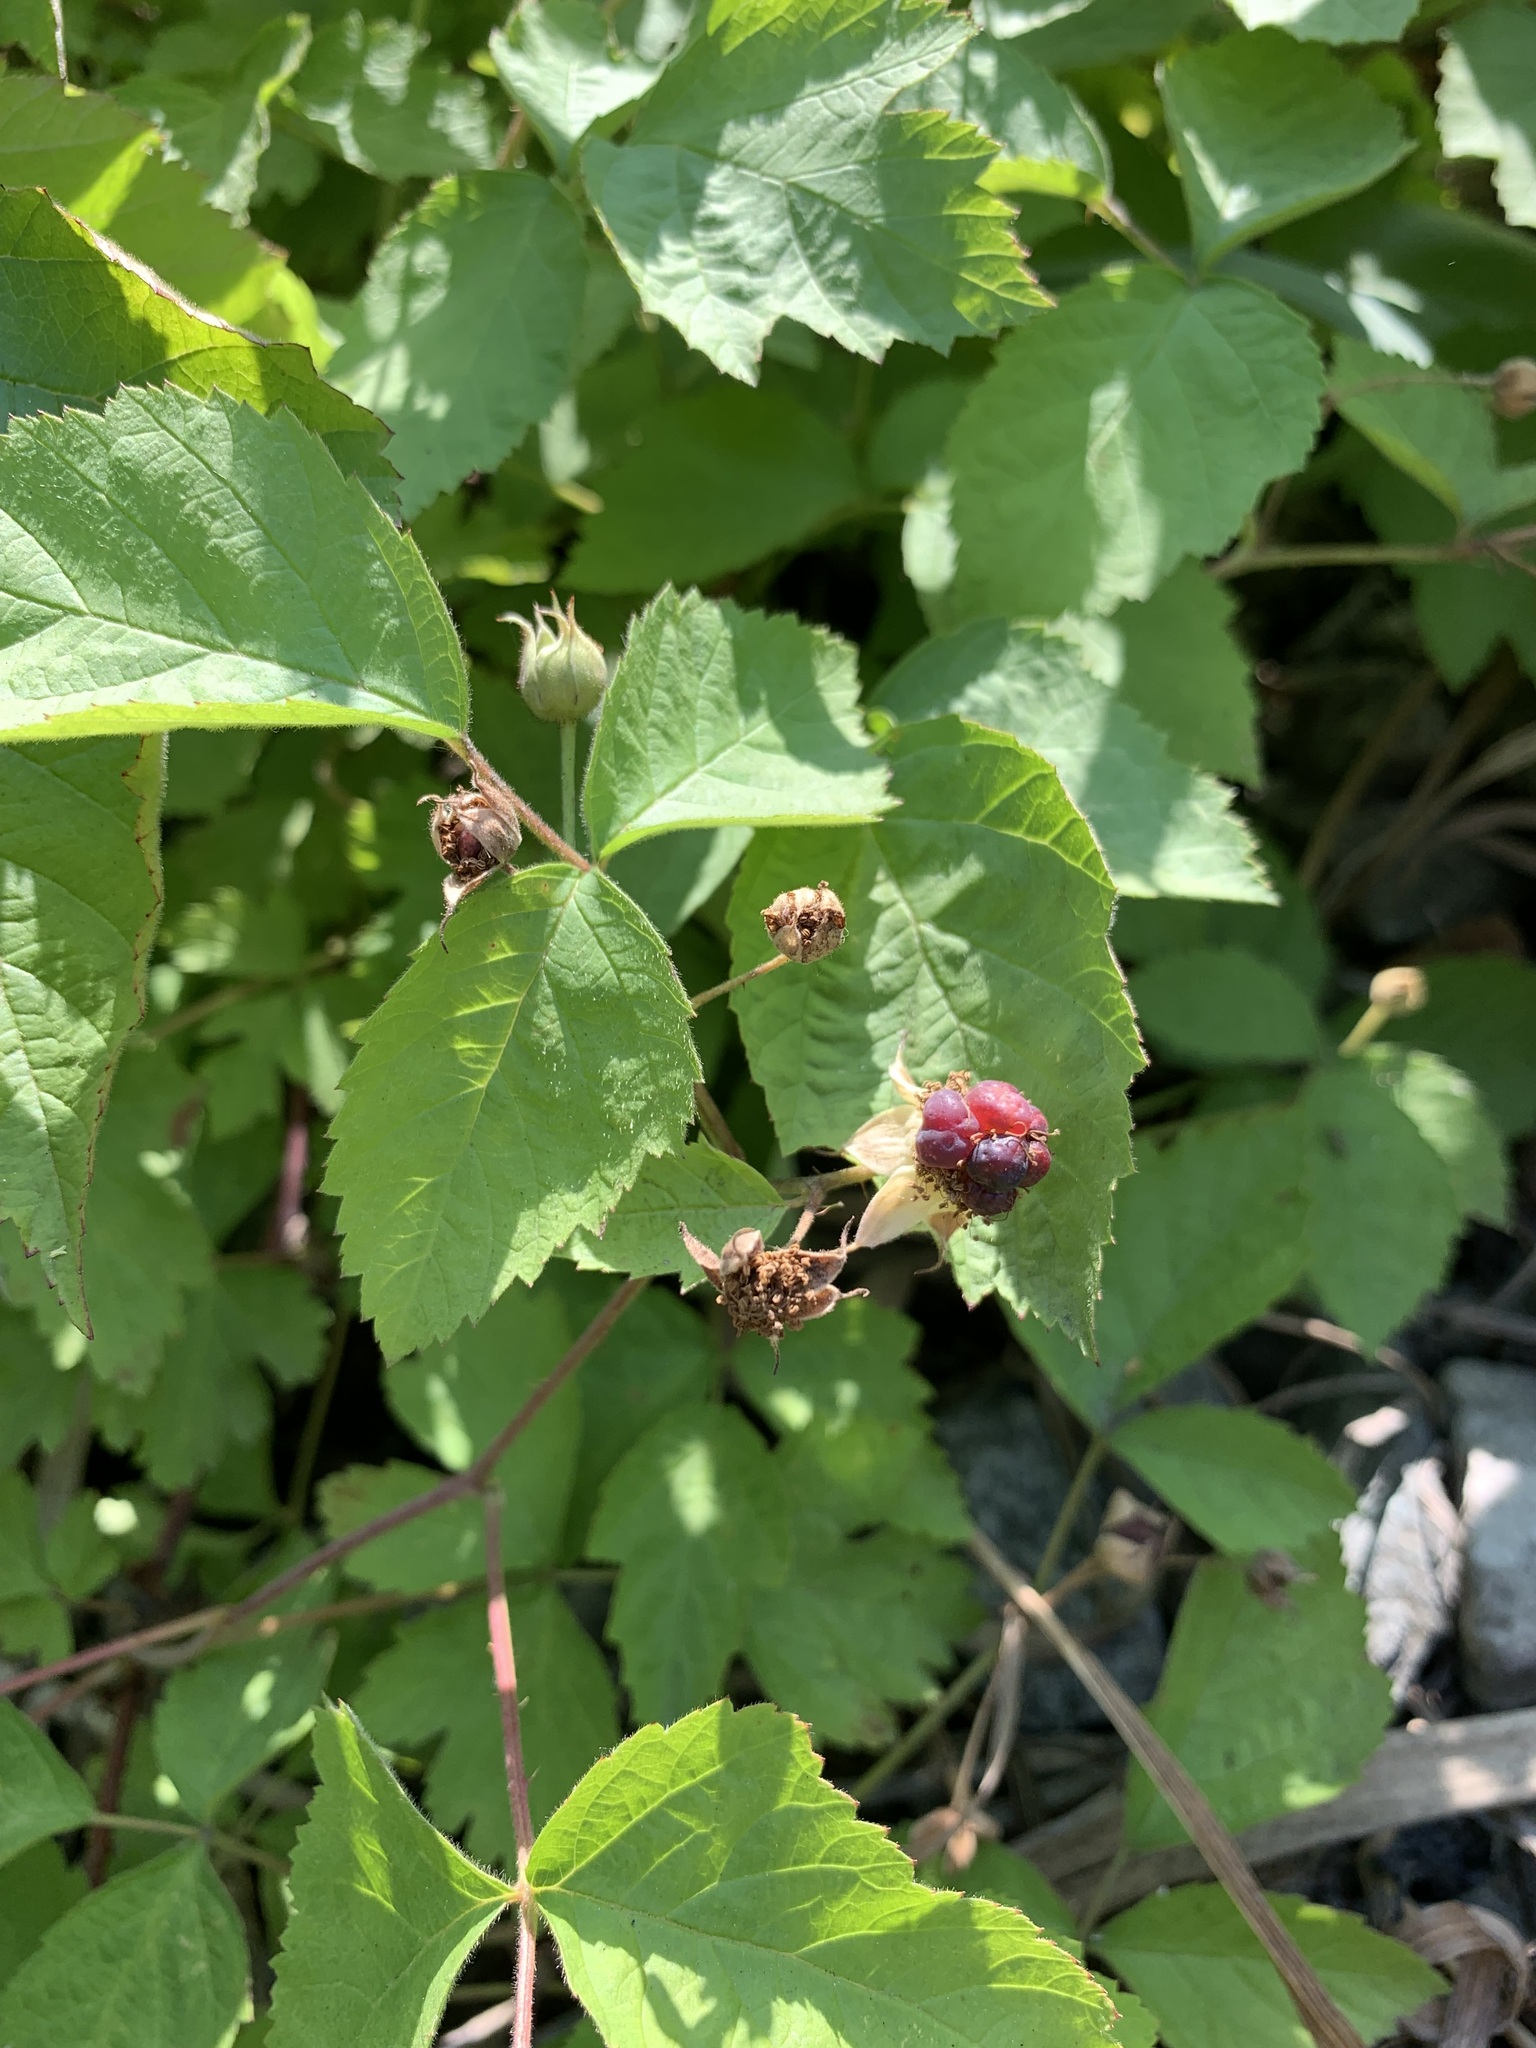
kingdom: Plantae
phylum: Tracheophyta
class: Magnoliopsida
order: Rosales
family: Rosaceae
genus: Rubus
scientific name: Rubus caesius
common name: Dewberry
